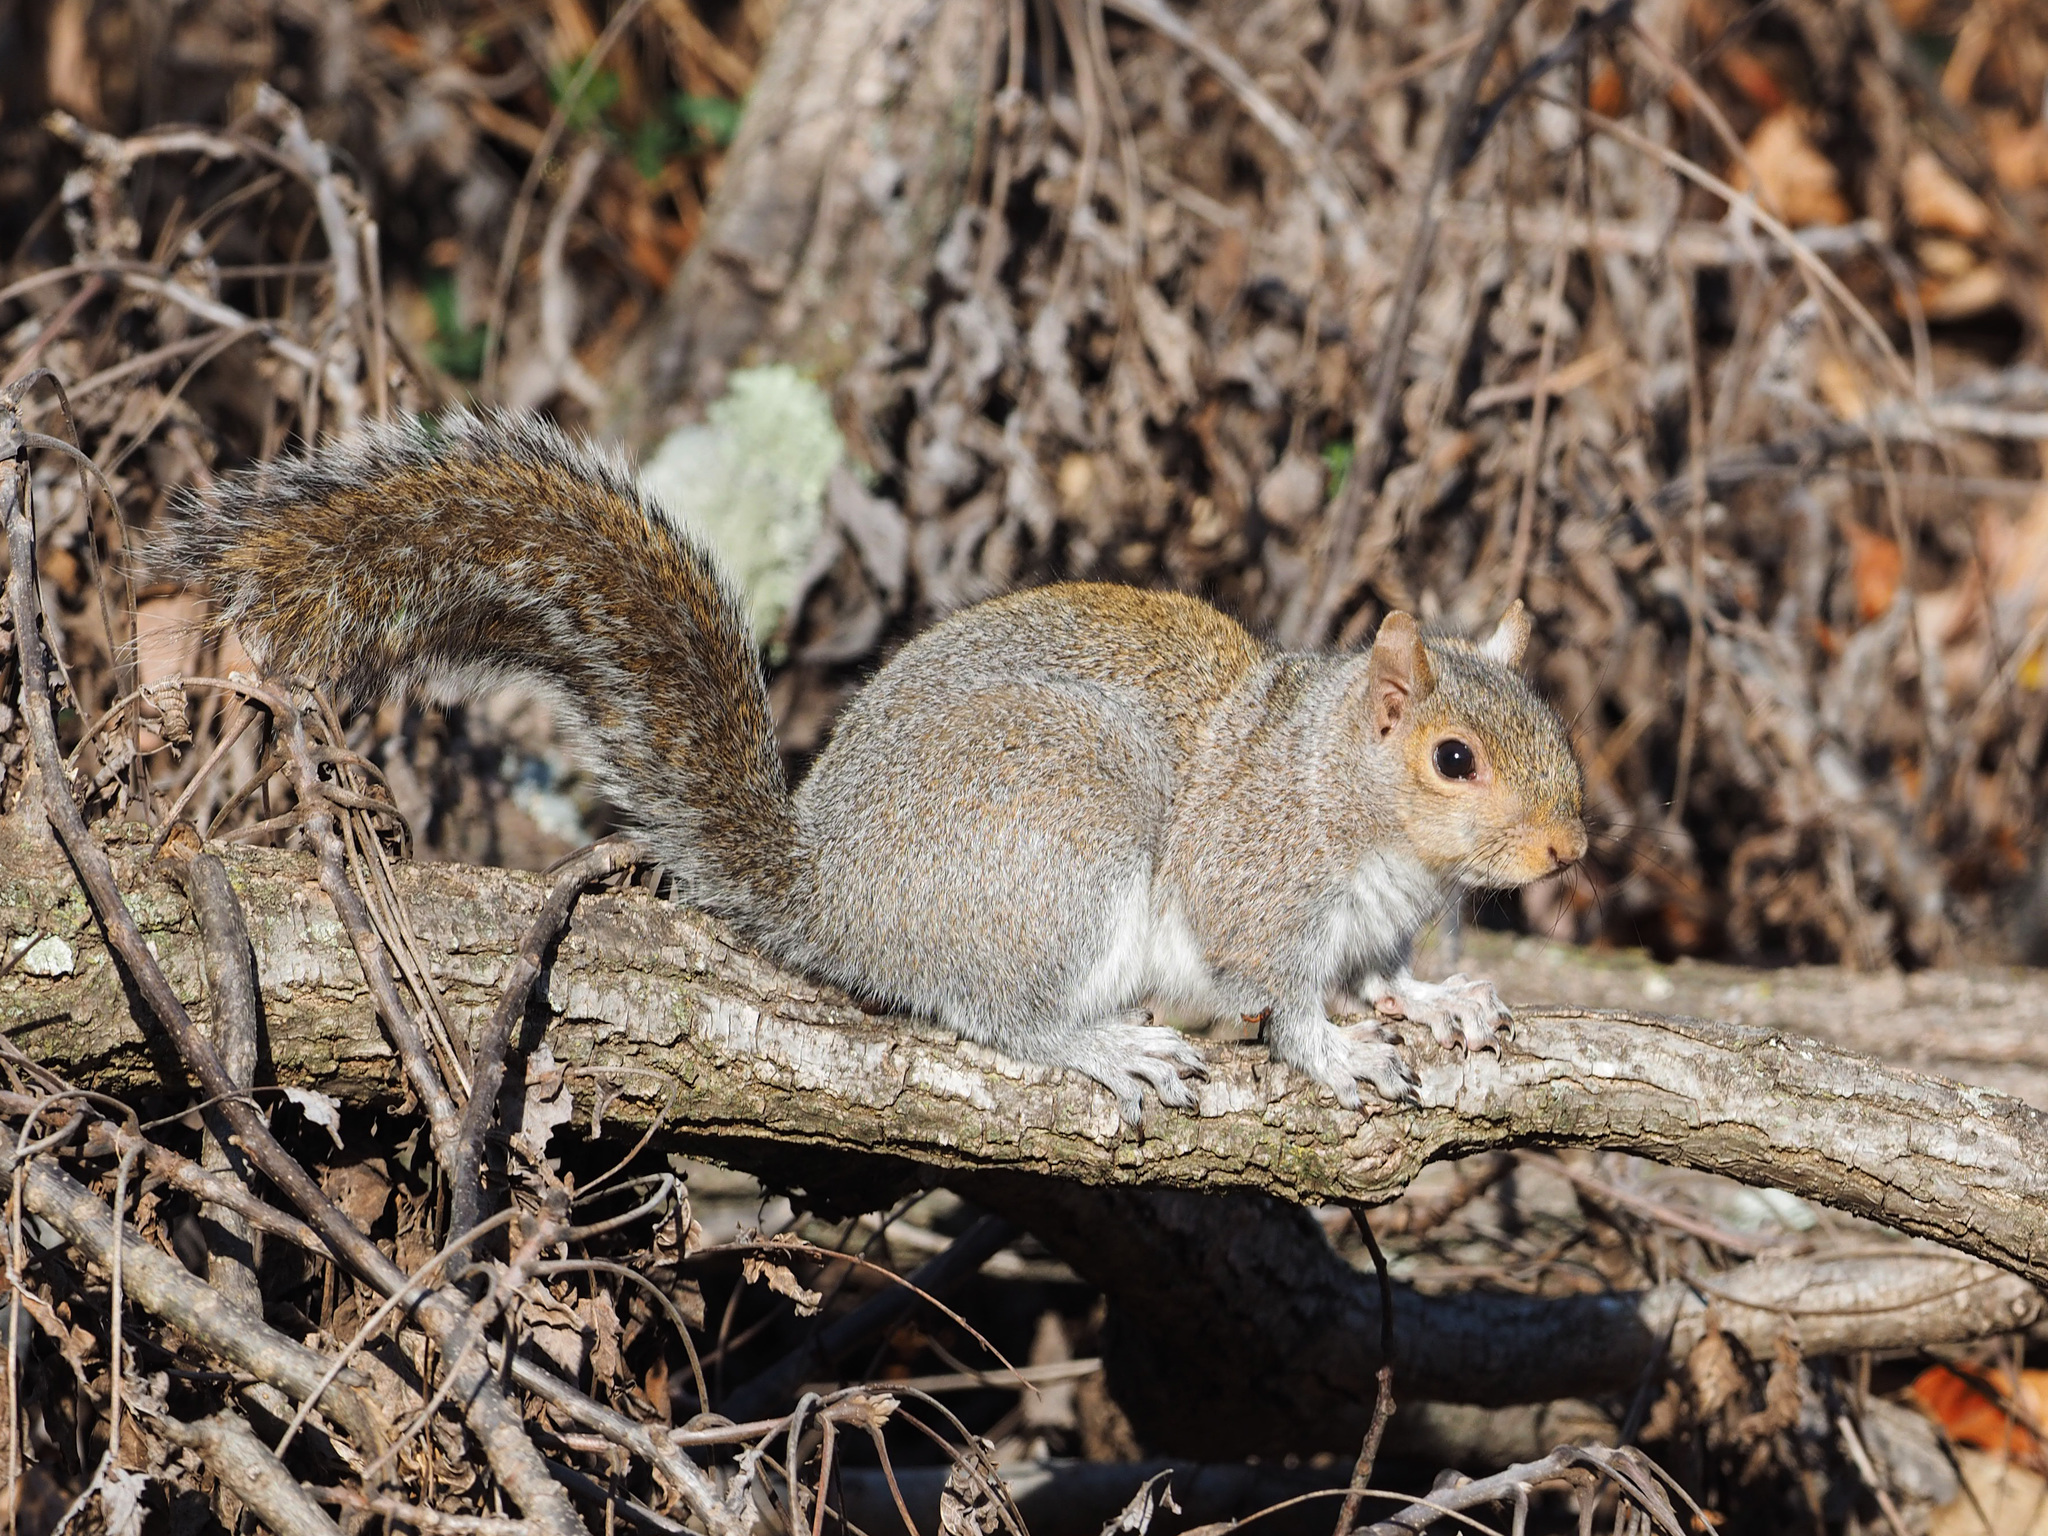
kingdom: Animalia
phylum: Chordata
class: Mammalia
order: Rodentia
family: Sciuridae
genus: Sciurus
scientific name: Sciurus carolinensis
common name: Eastern gray squirrel
